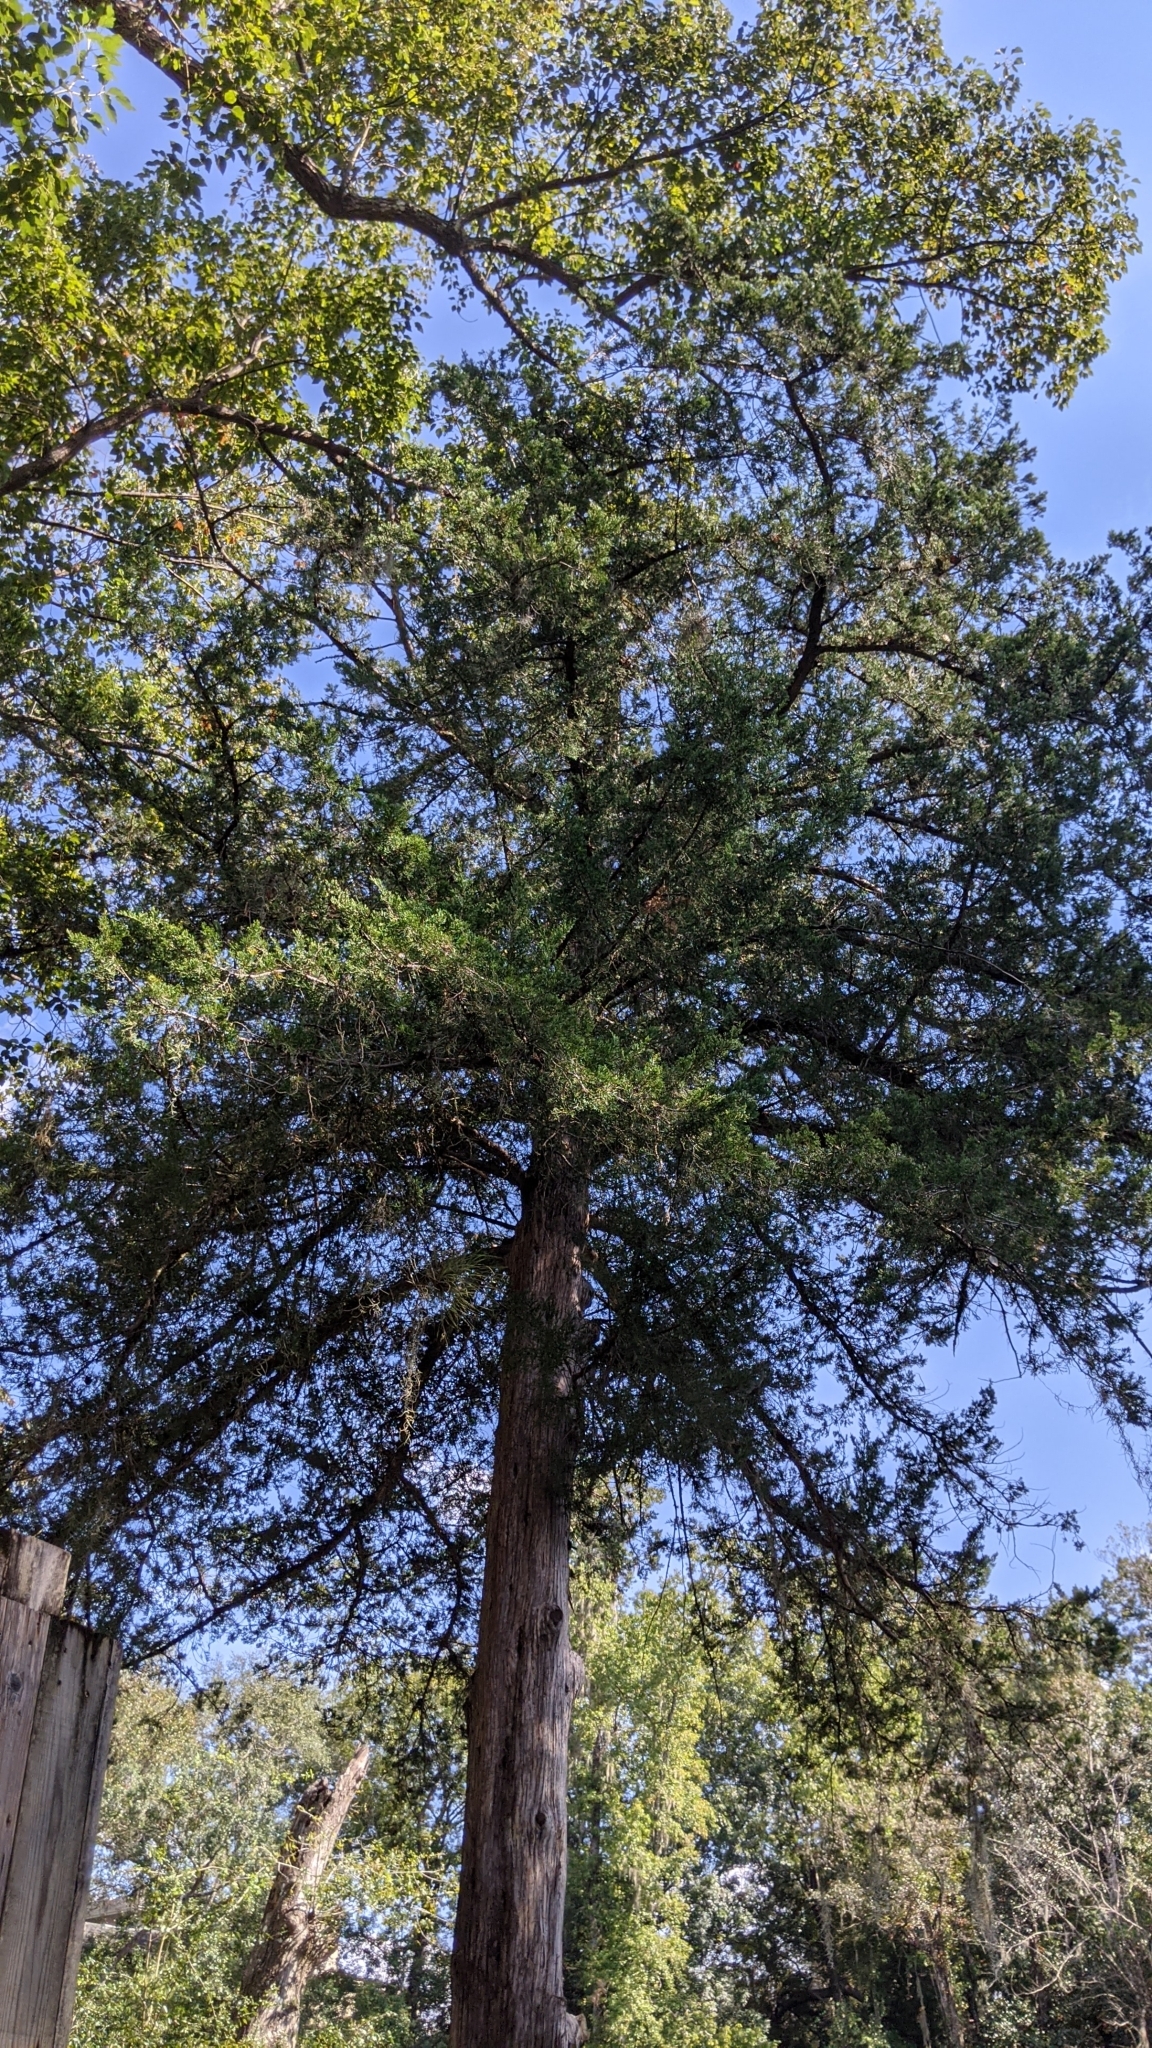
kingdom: Plantae
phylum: Tracheophyta
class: Pinopsida
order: Pinales
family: Cupressaceae
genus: Juniperus
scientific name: Juniperus virginiana
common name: Red juniper
